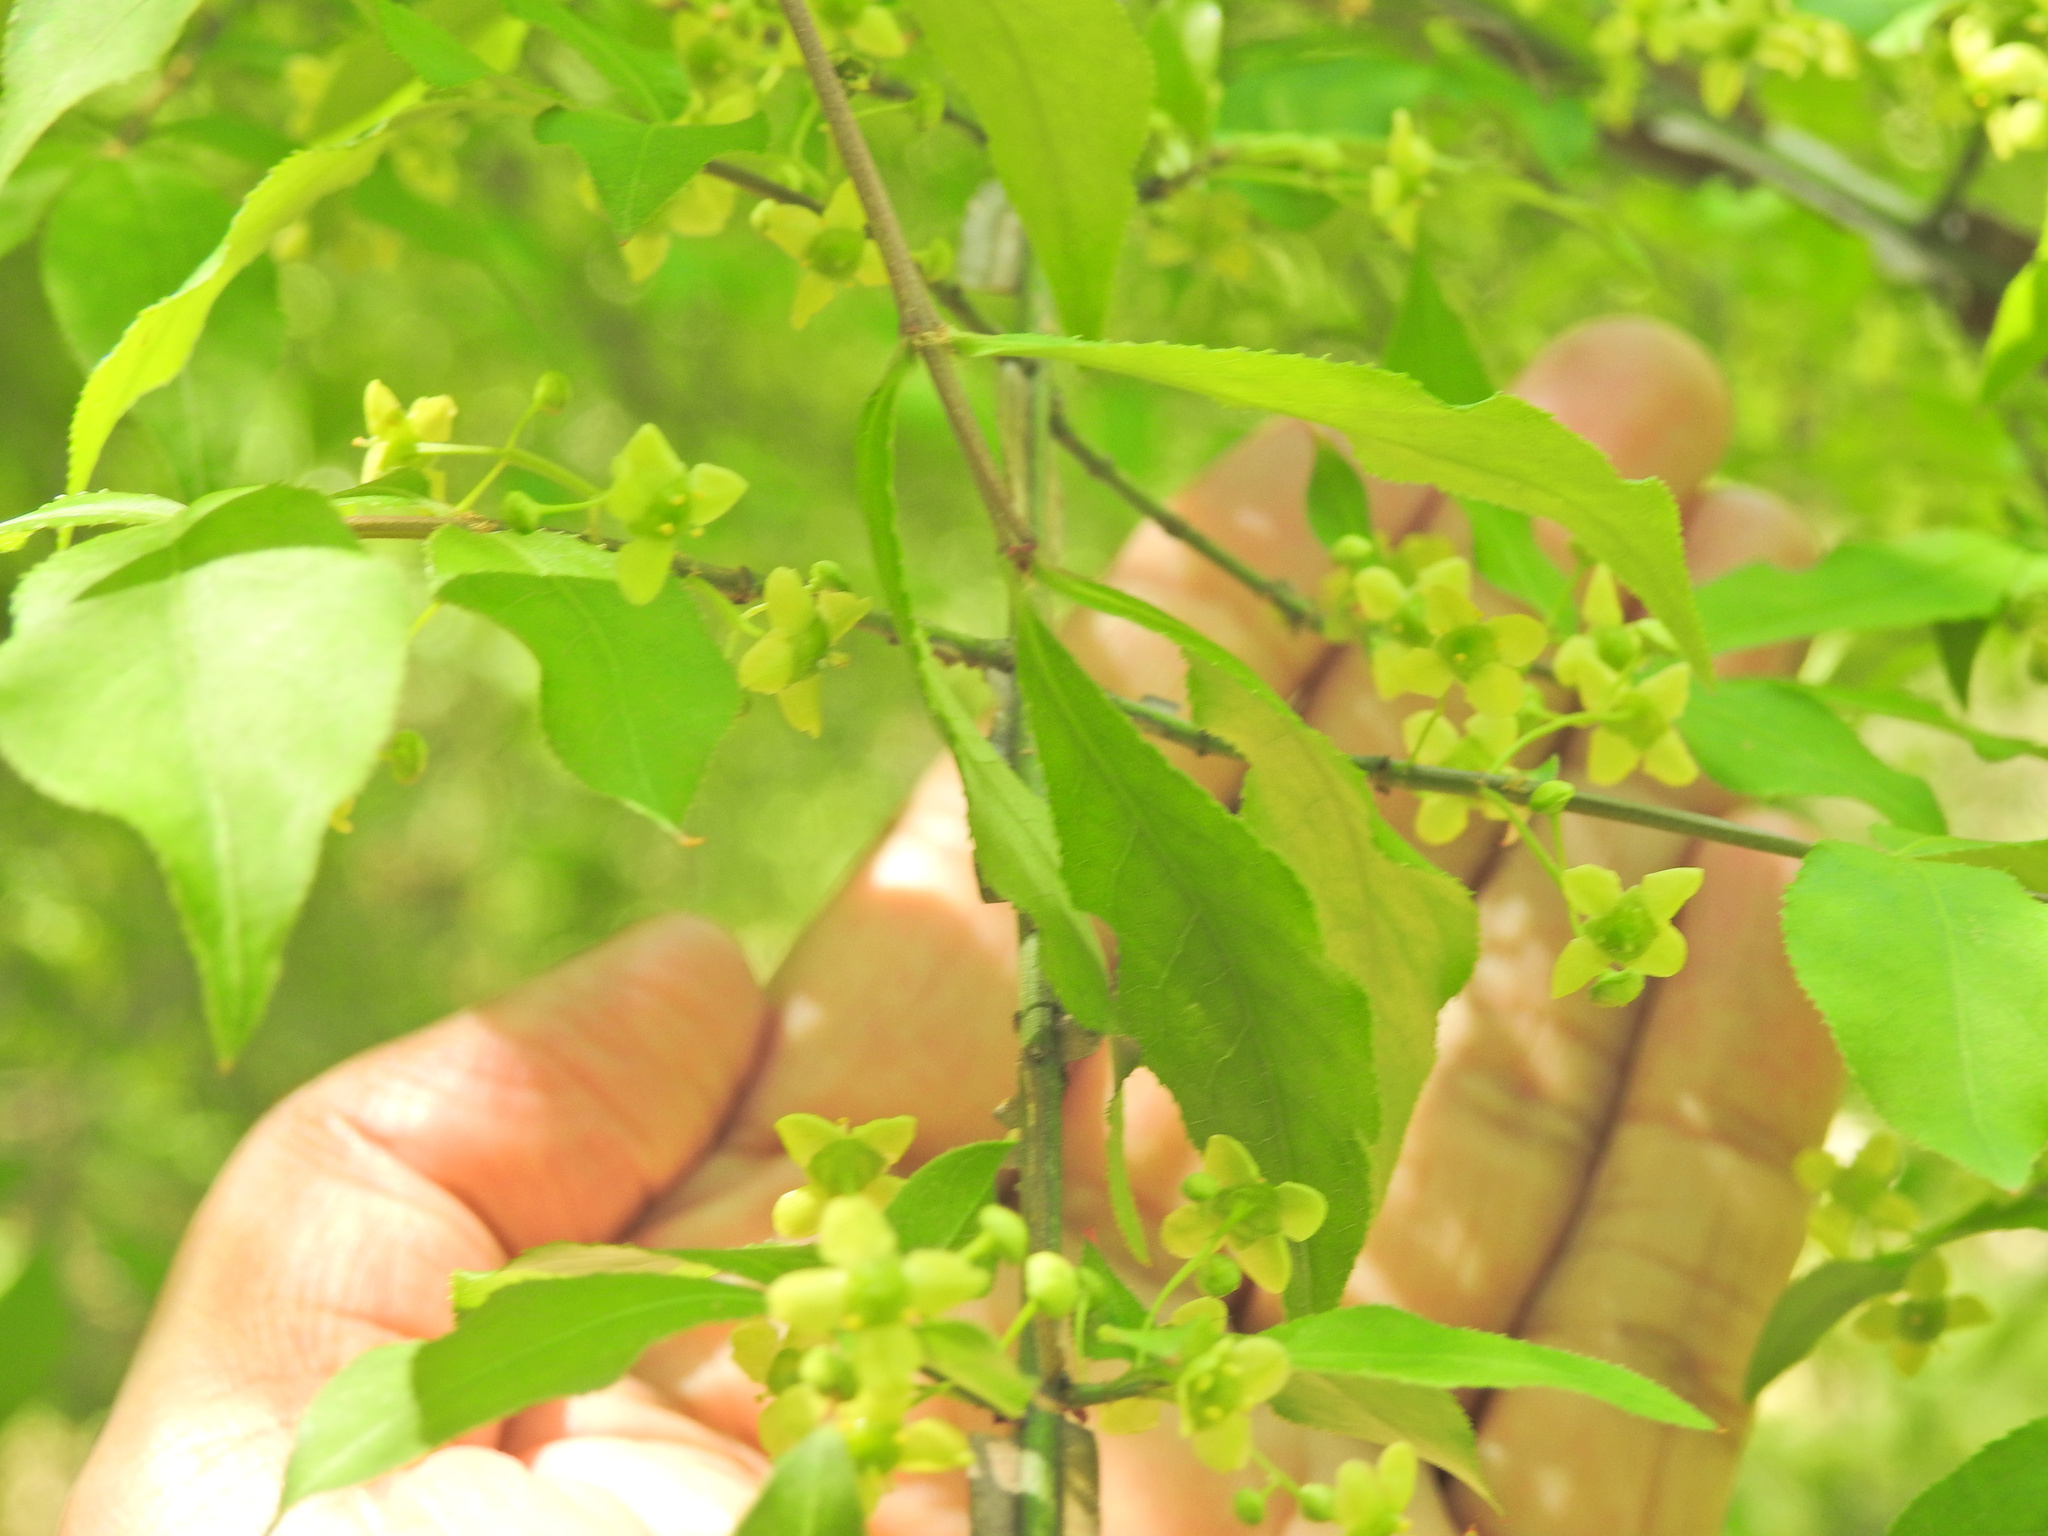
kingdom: Plantae
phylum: Tracheophyta
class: Magnoliopsida
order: Celastrales
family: Celastraceae
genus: Euonymus
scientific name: Euonymus alatus
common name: Winged euonymus
